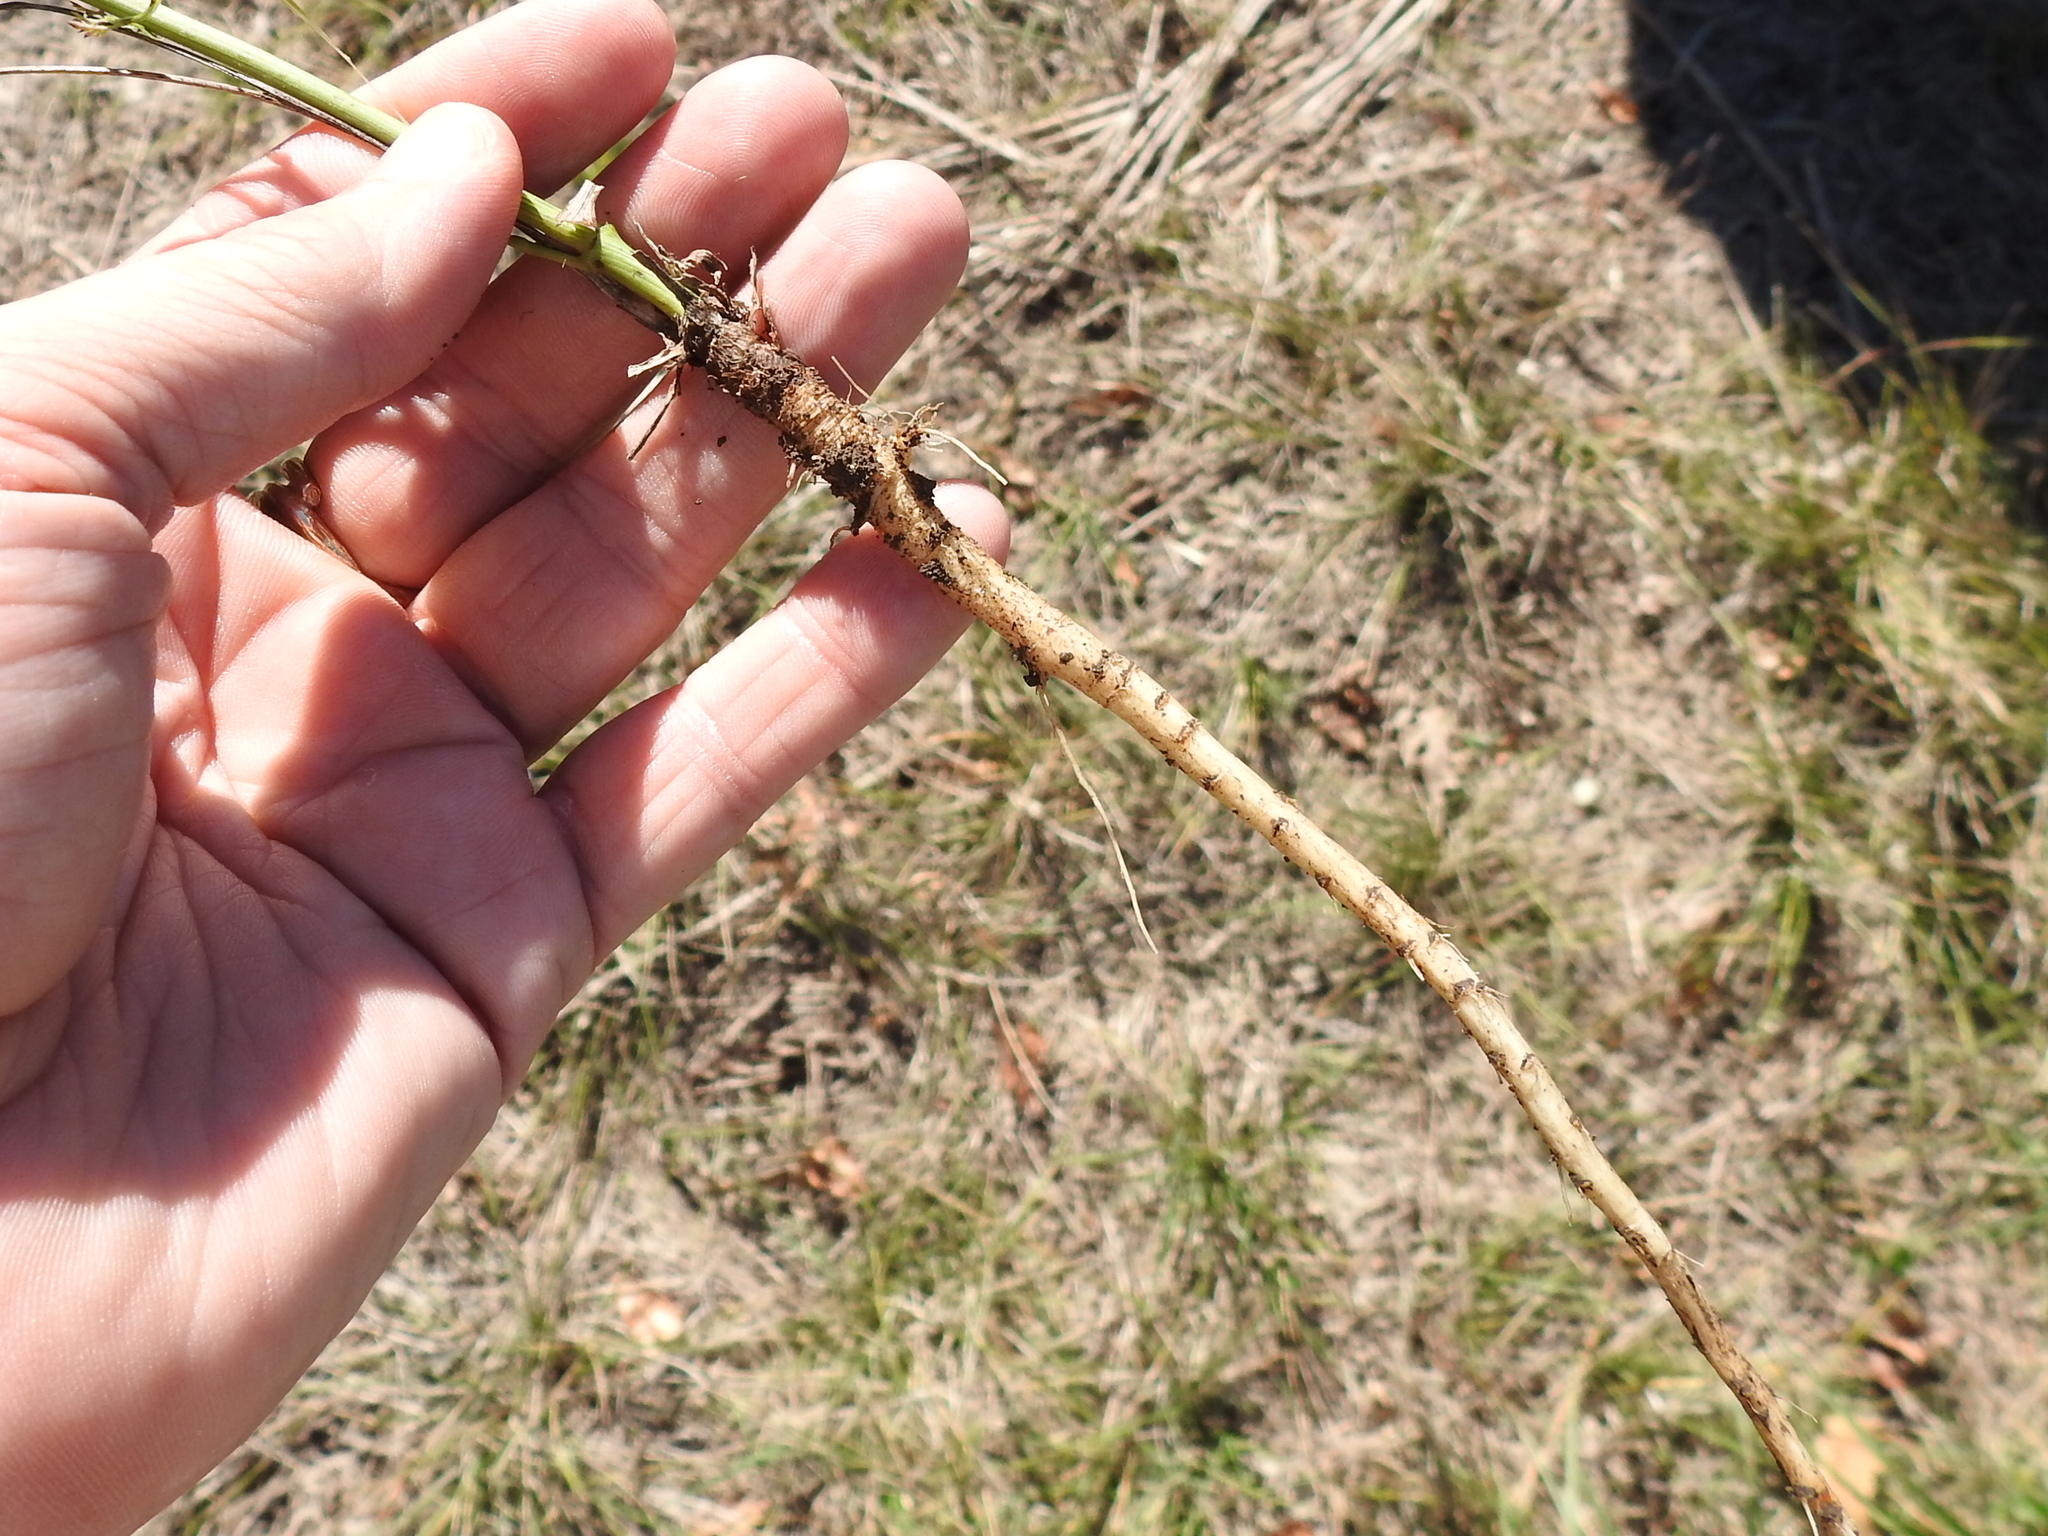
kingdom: Plantae
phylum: Tracheophyta
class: Magnoliopsida
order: Apiales
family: Apiaceae
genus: Daucus
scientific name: Daucus carota
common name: Wild carrot
